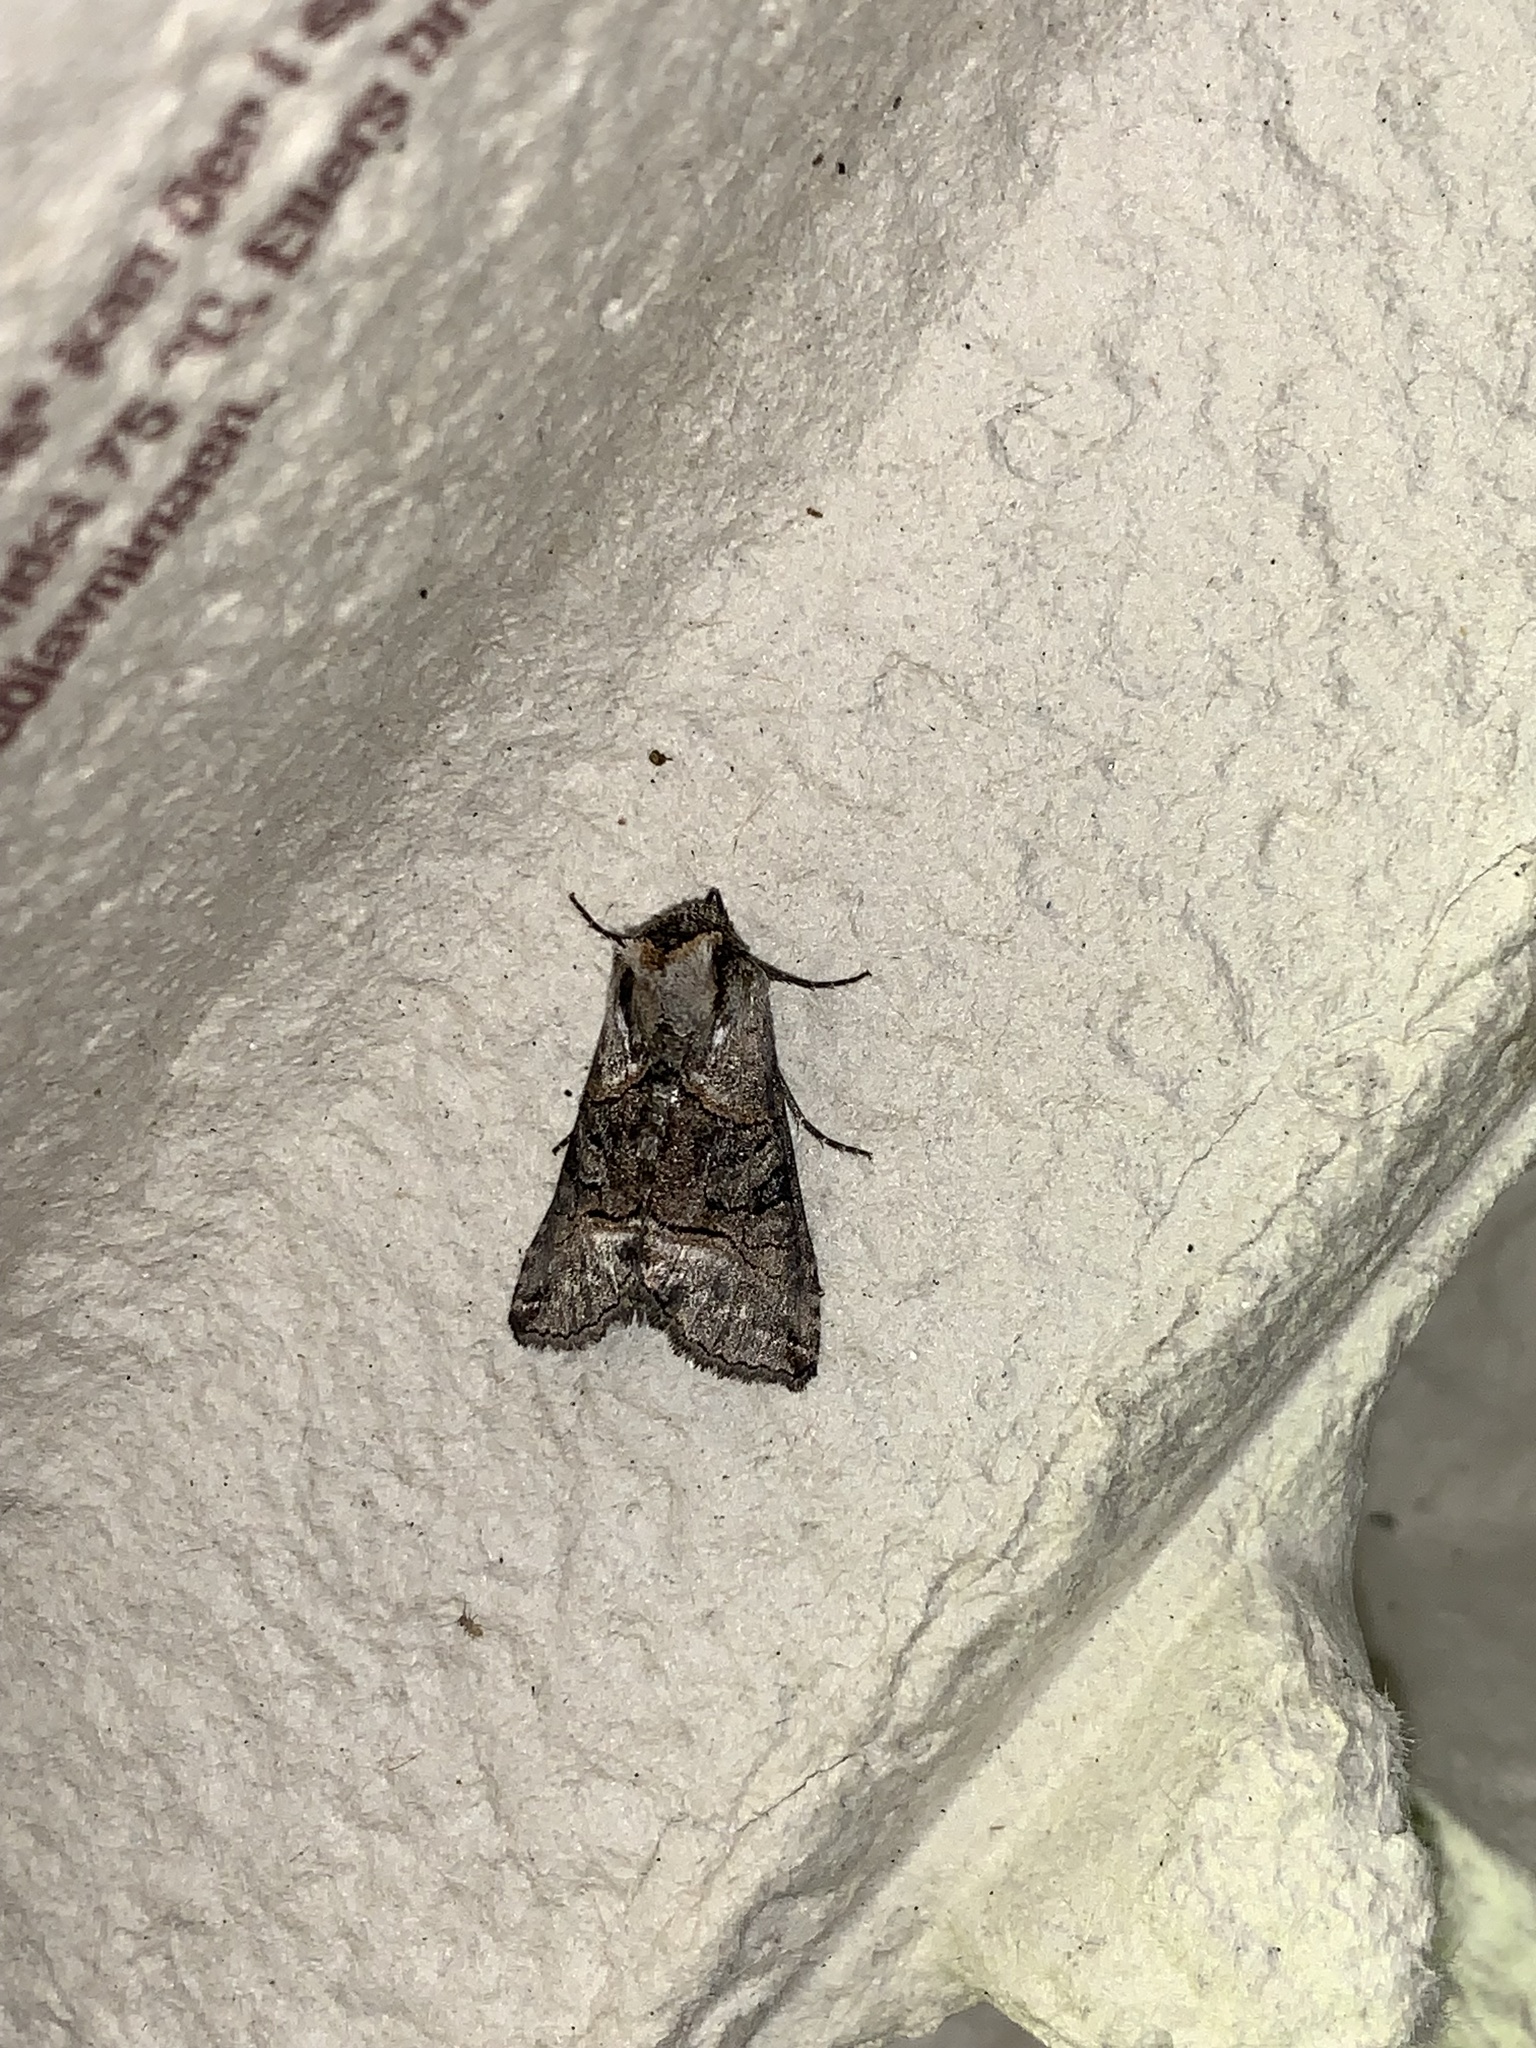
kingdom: Animalia
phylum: Arthropoda
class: Insecta
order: Lepidoptera
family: Noctuidae
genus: Abrostola
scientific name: Abrostola tripartita
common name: Spectacle
